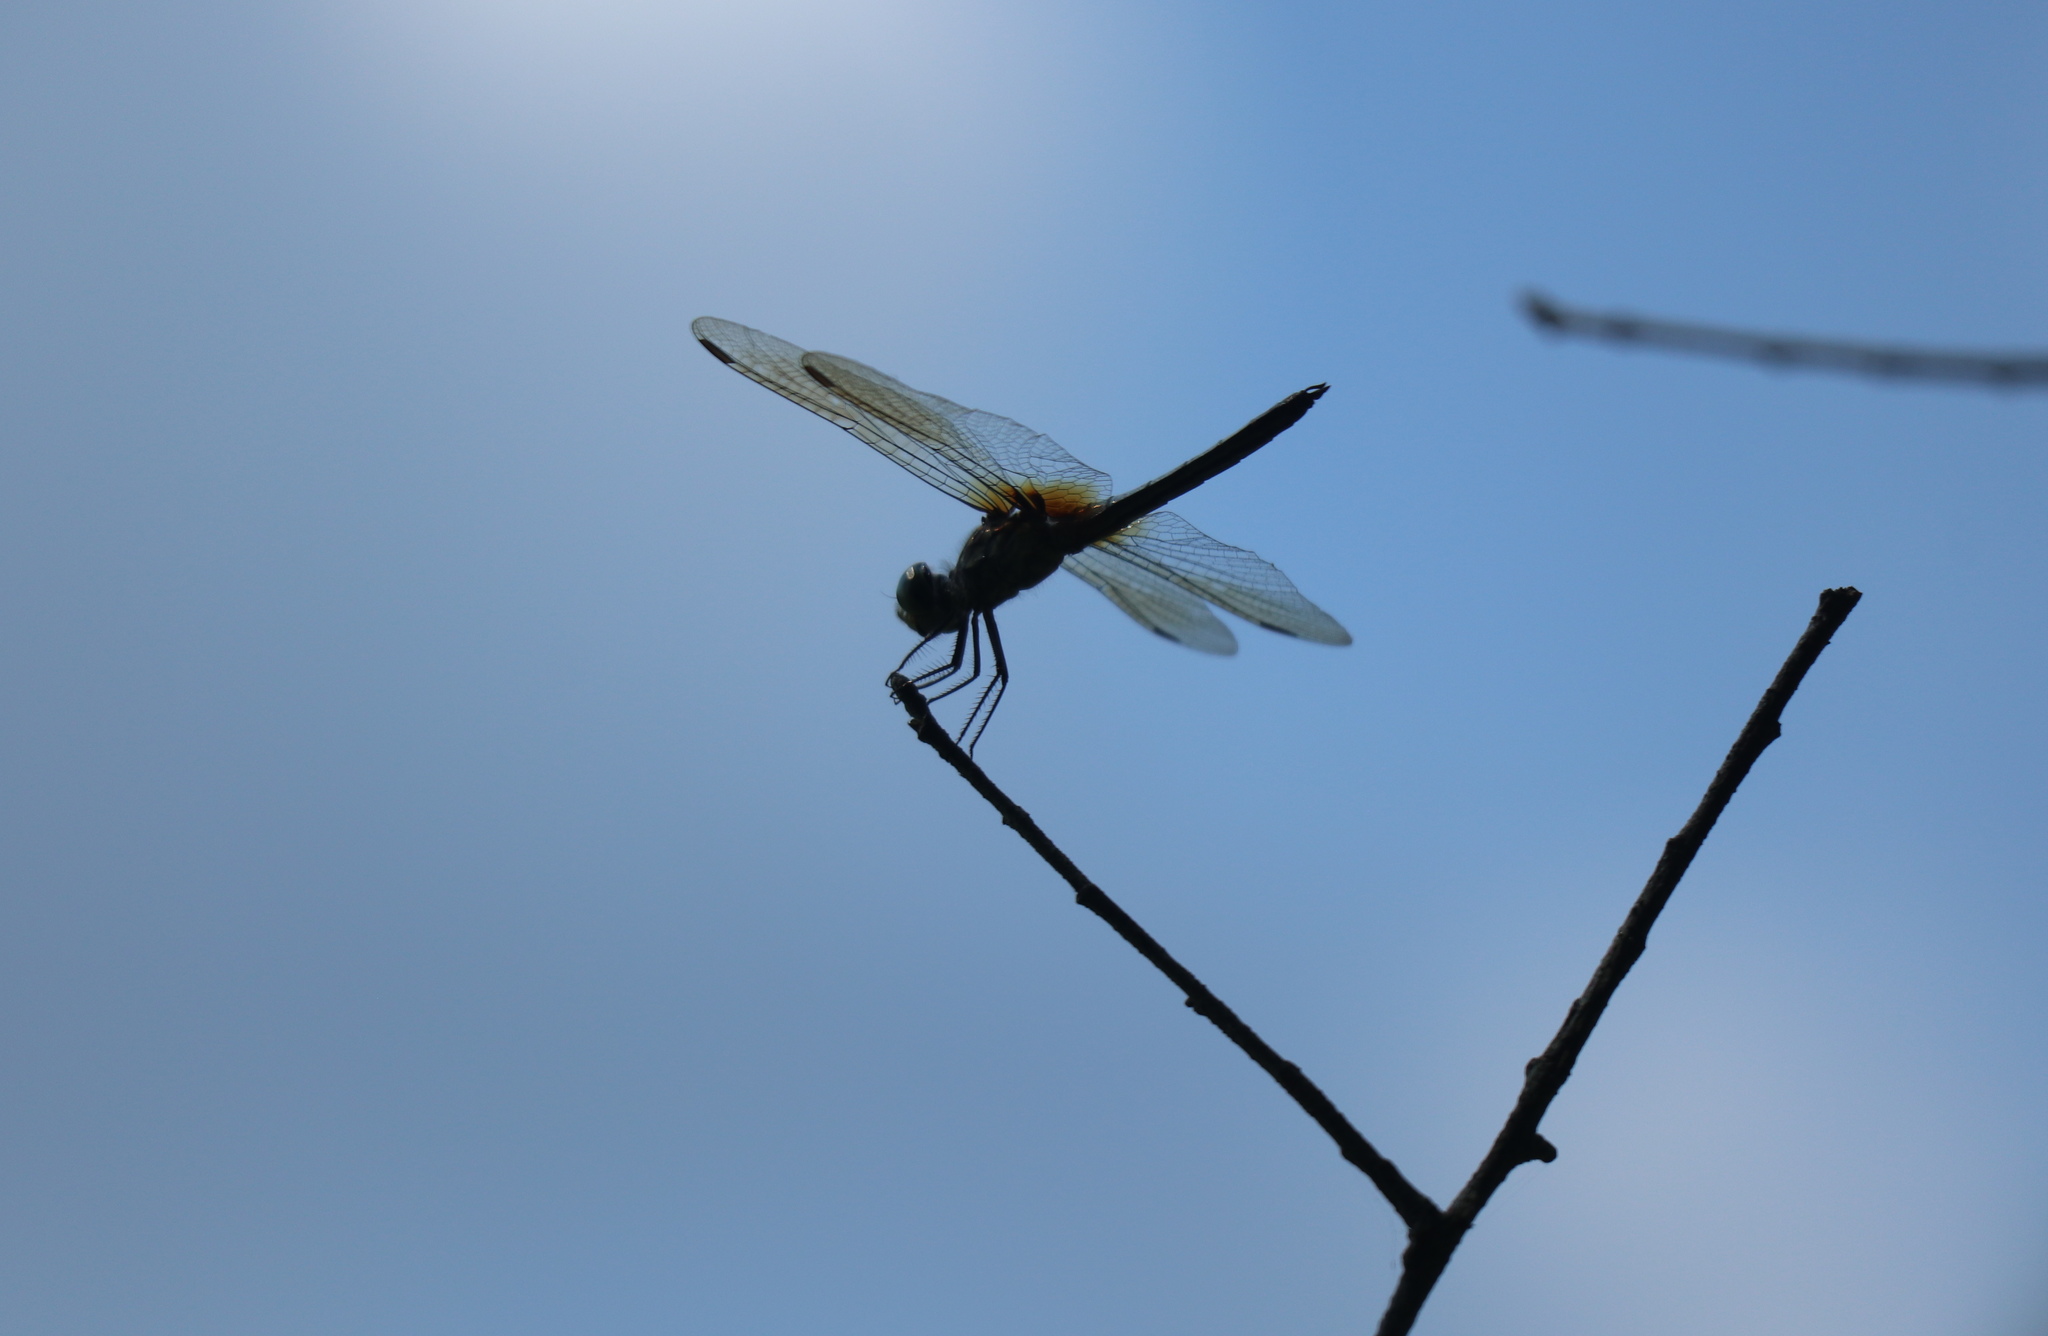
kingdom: Animalia
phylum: Arthropoda
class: Insecta
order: Odonata
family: Libellulidae
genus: Pachydiplax
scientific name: Pachydiplax longipennis
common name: Blue dasher
